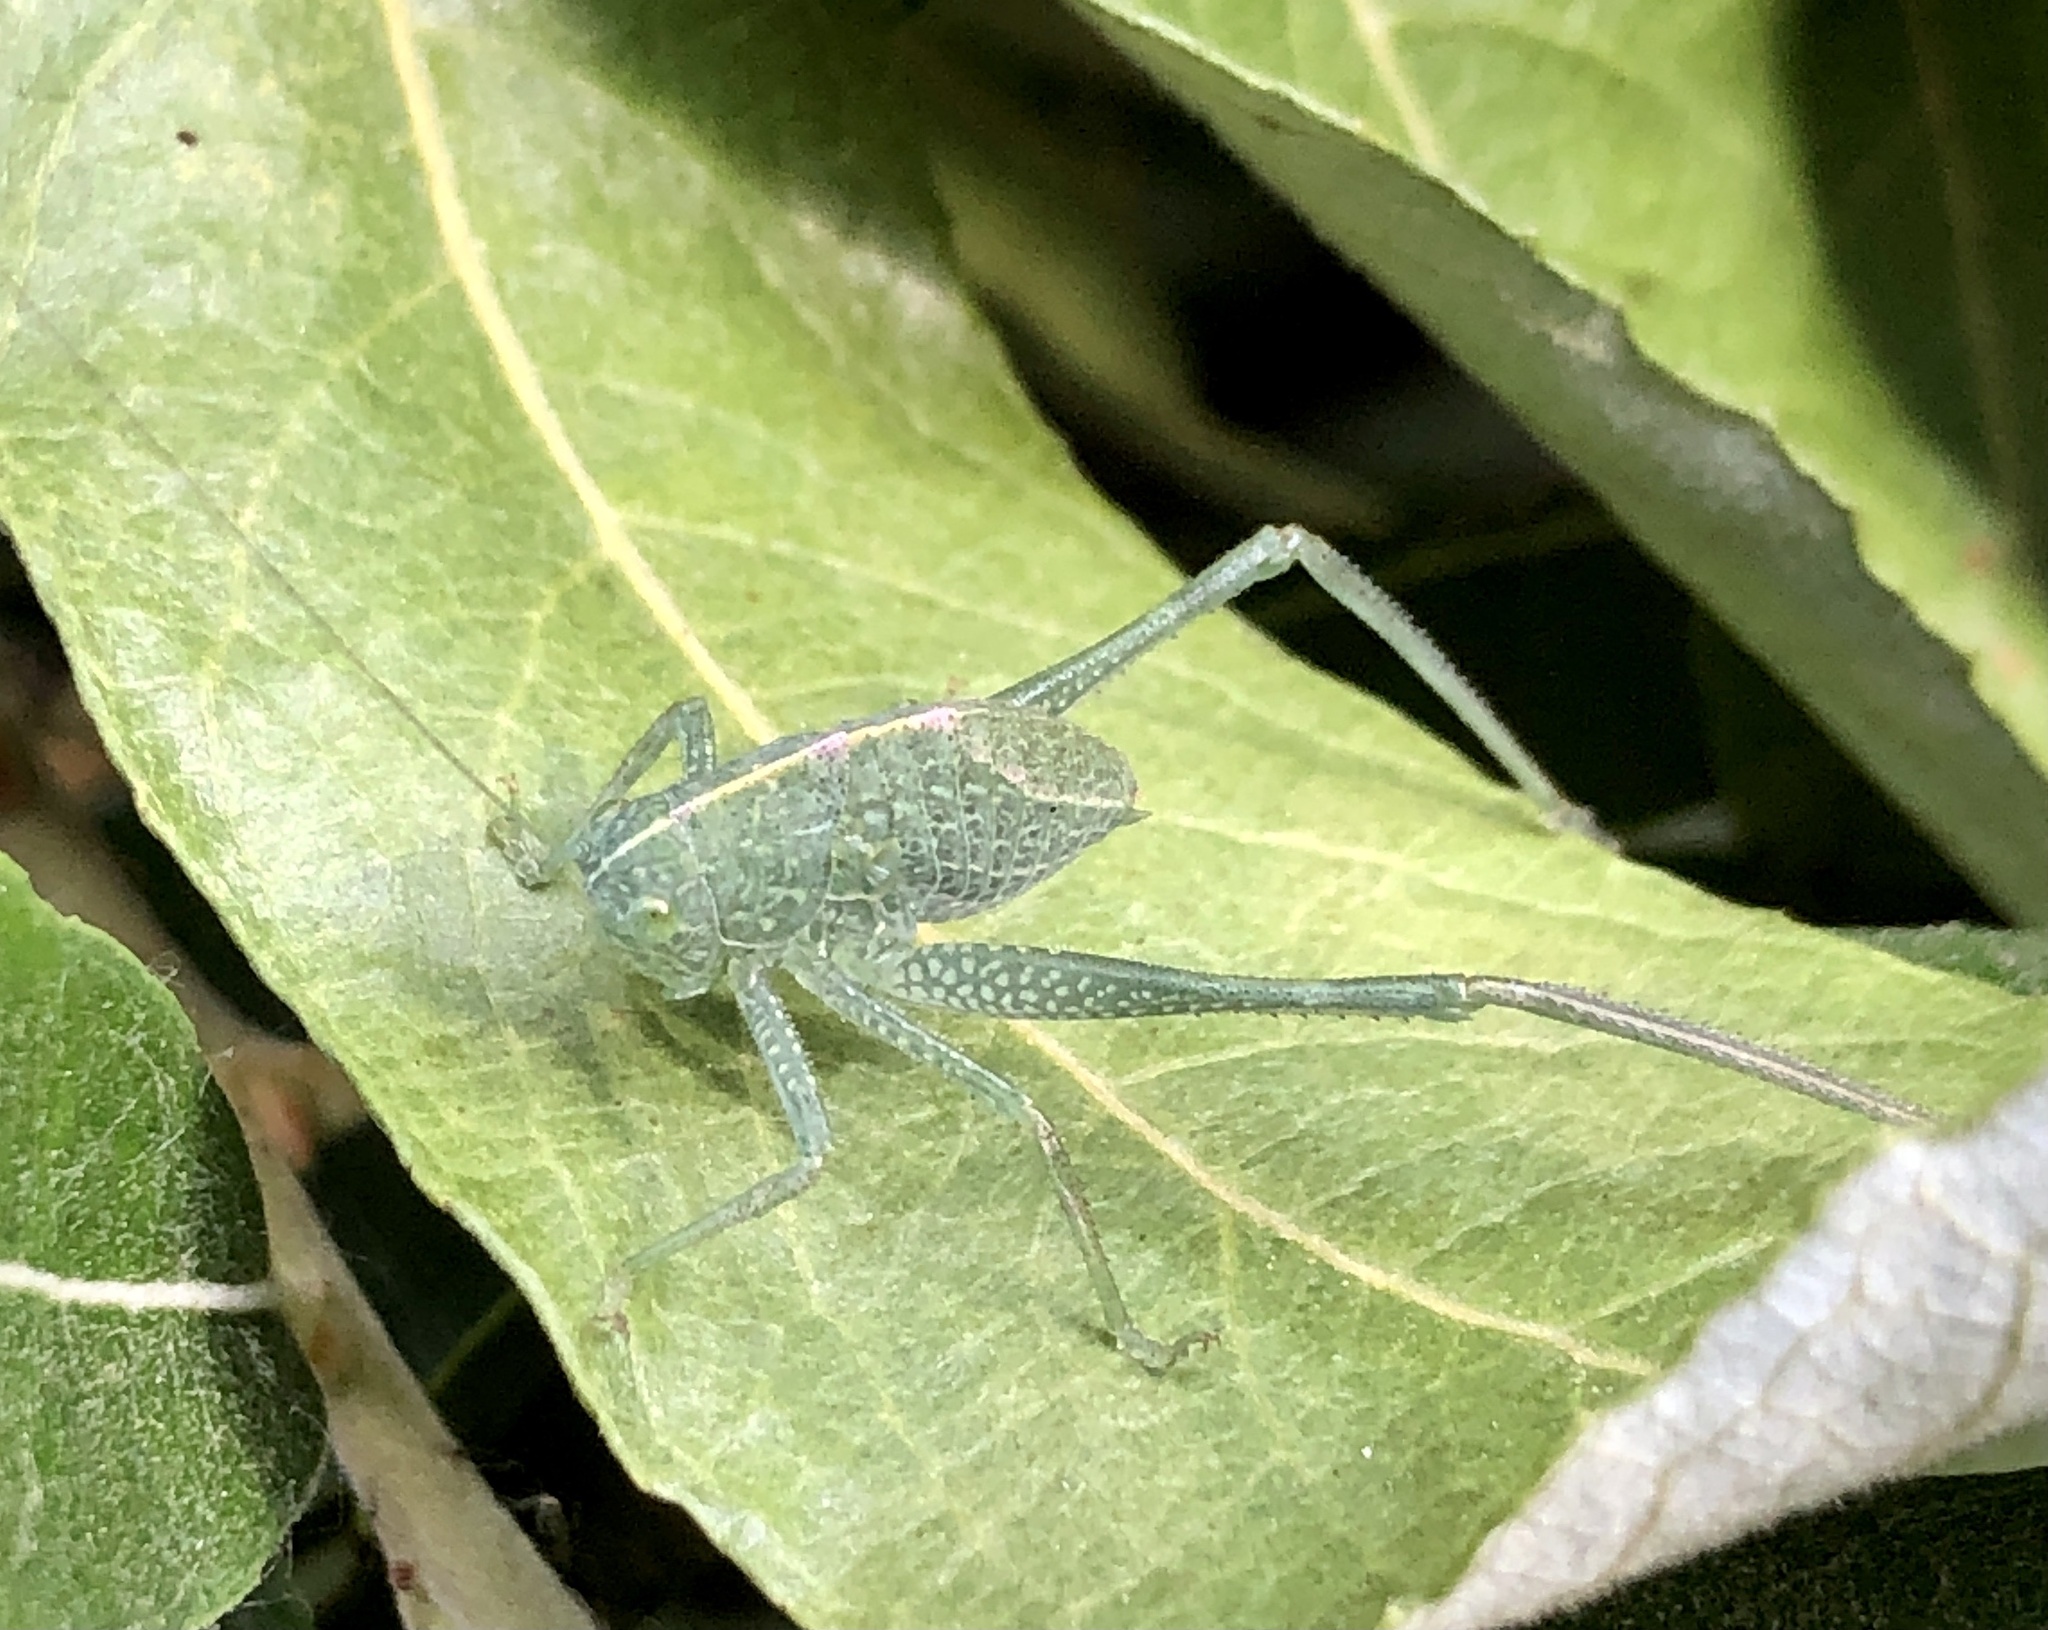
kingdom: Animalia
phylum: Arthropoda
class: Insecta
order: Orthoptera
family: Tettigoniidae
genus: Microcentrum
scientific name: Microcentrum rhombifolium
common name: Broad-winged katydid
